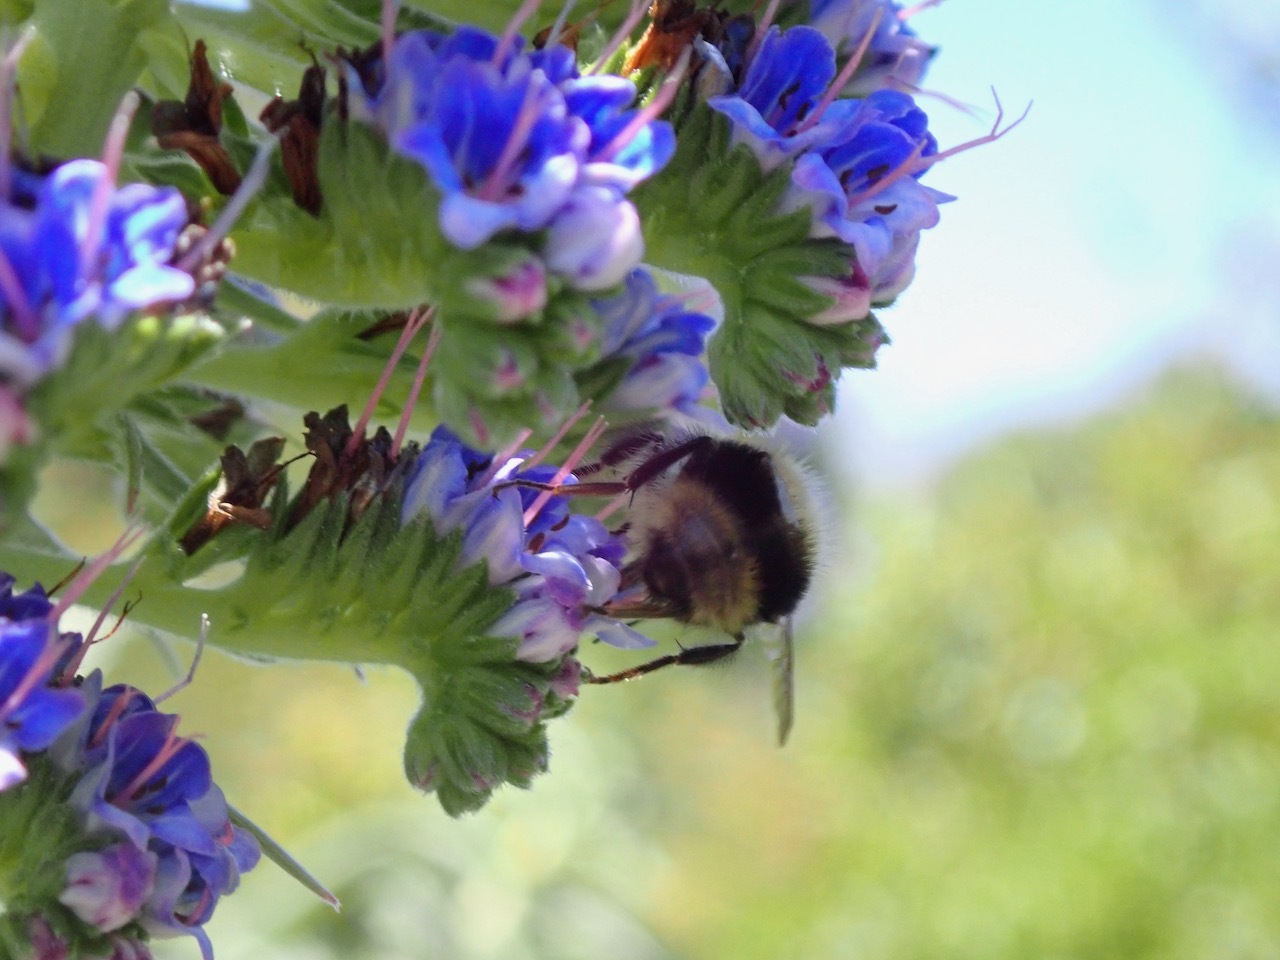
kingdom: Animalia
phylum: Arthropoda
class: Insecta
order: Hymenoptera
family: Apidae
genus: Bombus
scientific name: Bombus melanopygus
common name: Black tail bumble bee
